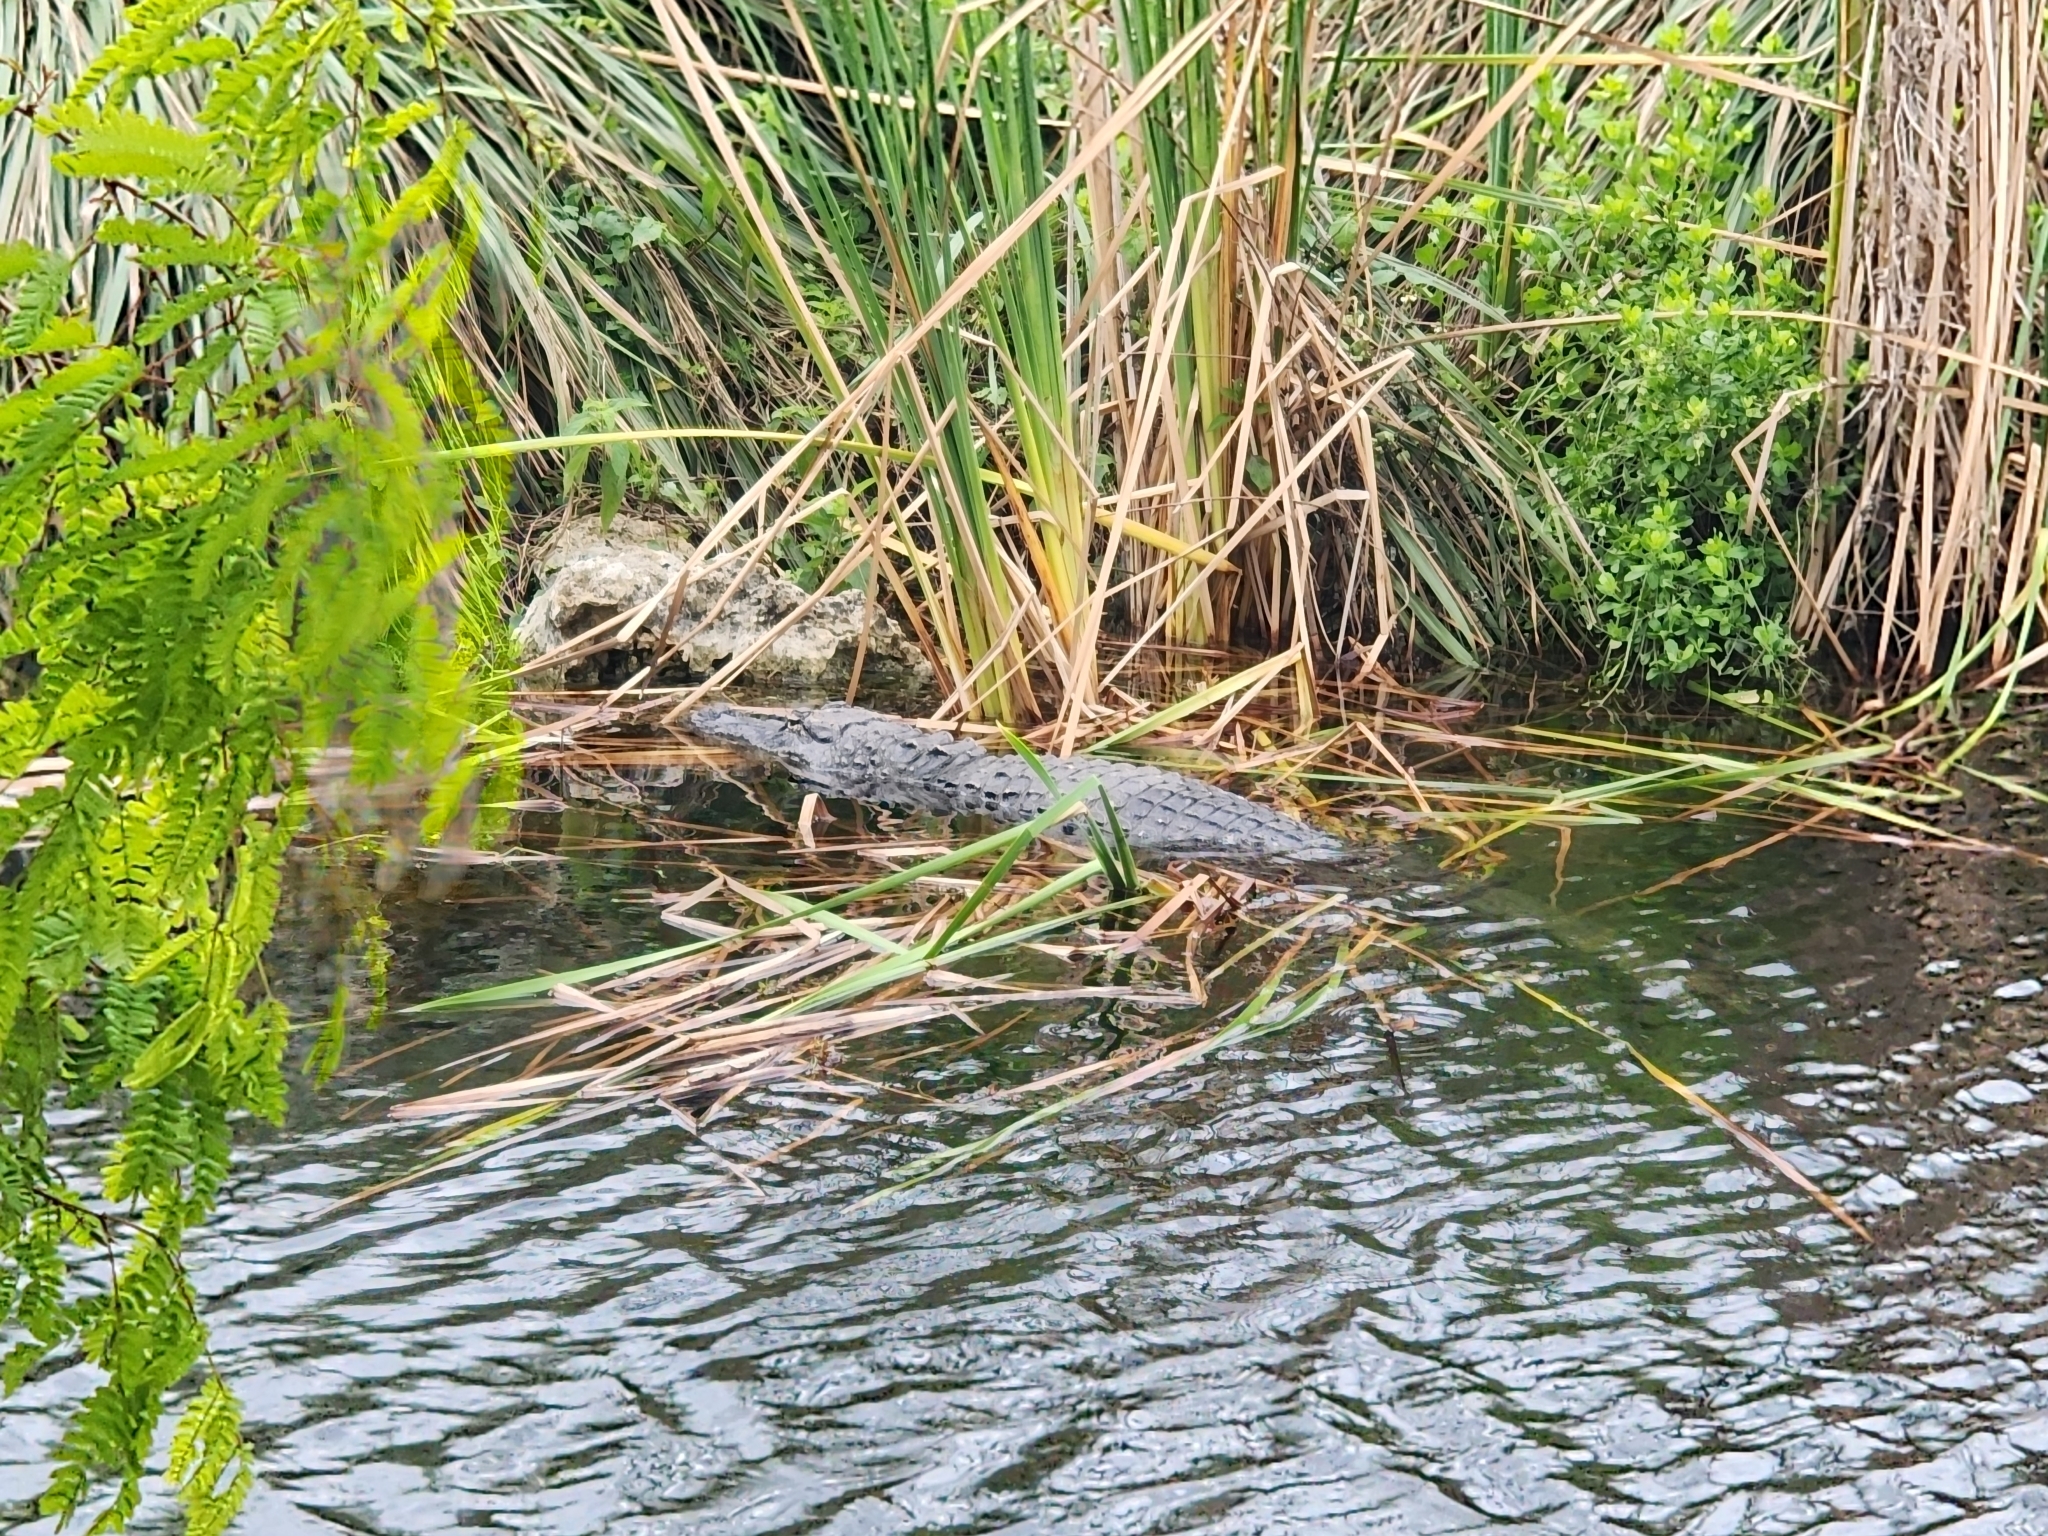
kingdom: Animalia
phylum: Chordata
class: Crocodylia
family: Alligatoridae
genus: Alligator
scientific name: Alligator mississippiensis
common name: American alligator
